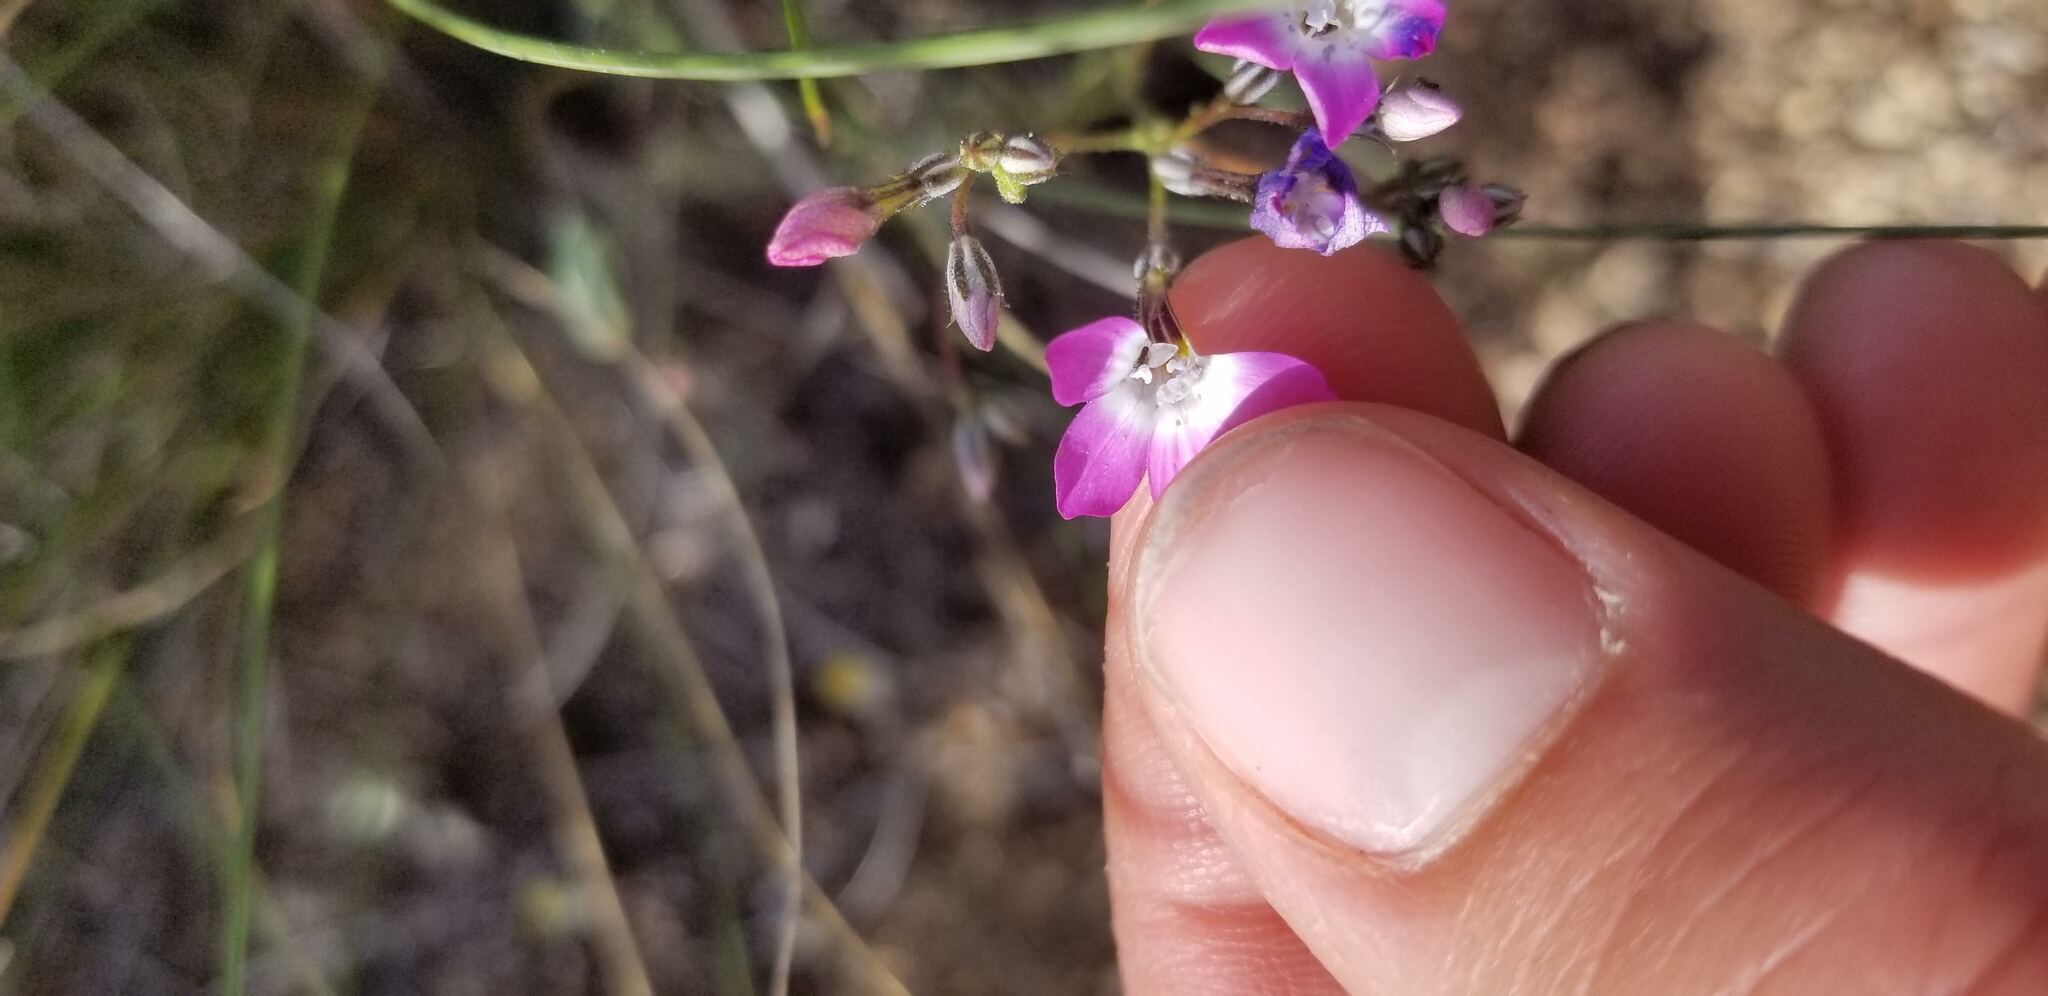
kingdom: Plantae
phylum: Tracheophyta
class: Magnoliopsida
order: Ericales
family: Polemoniaceae
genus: Gilia
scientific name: Gilia leptantha
